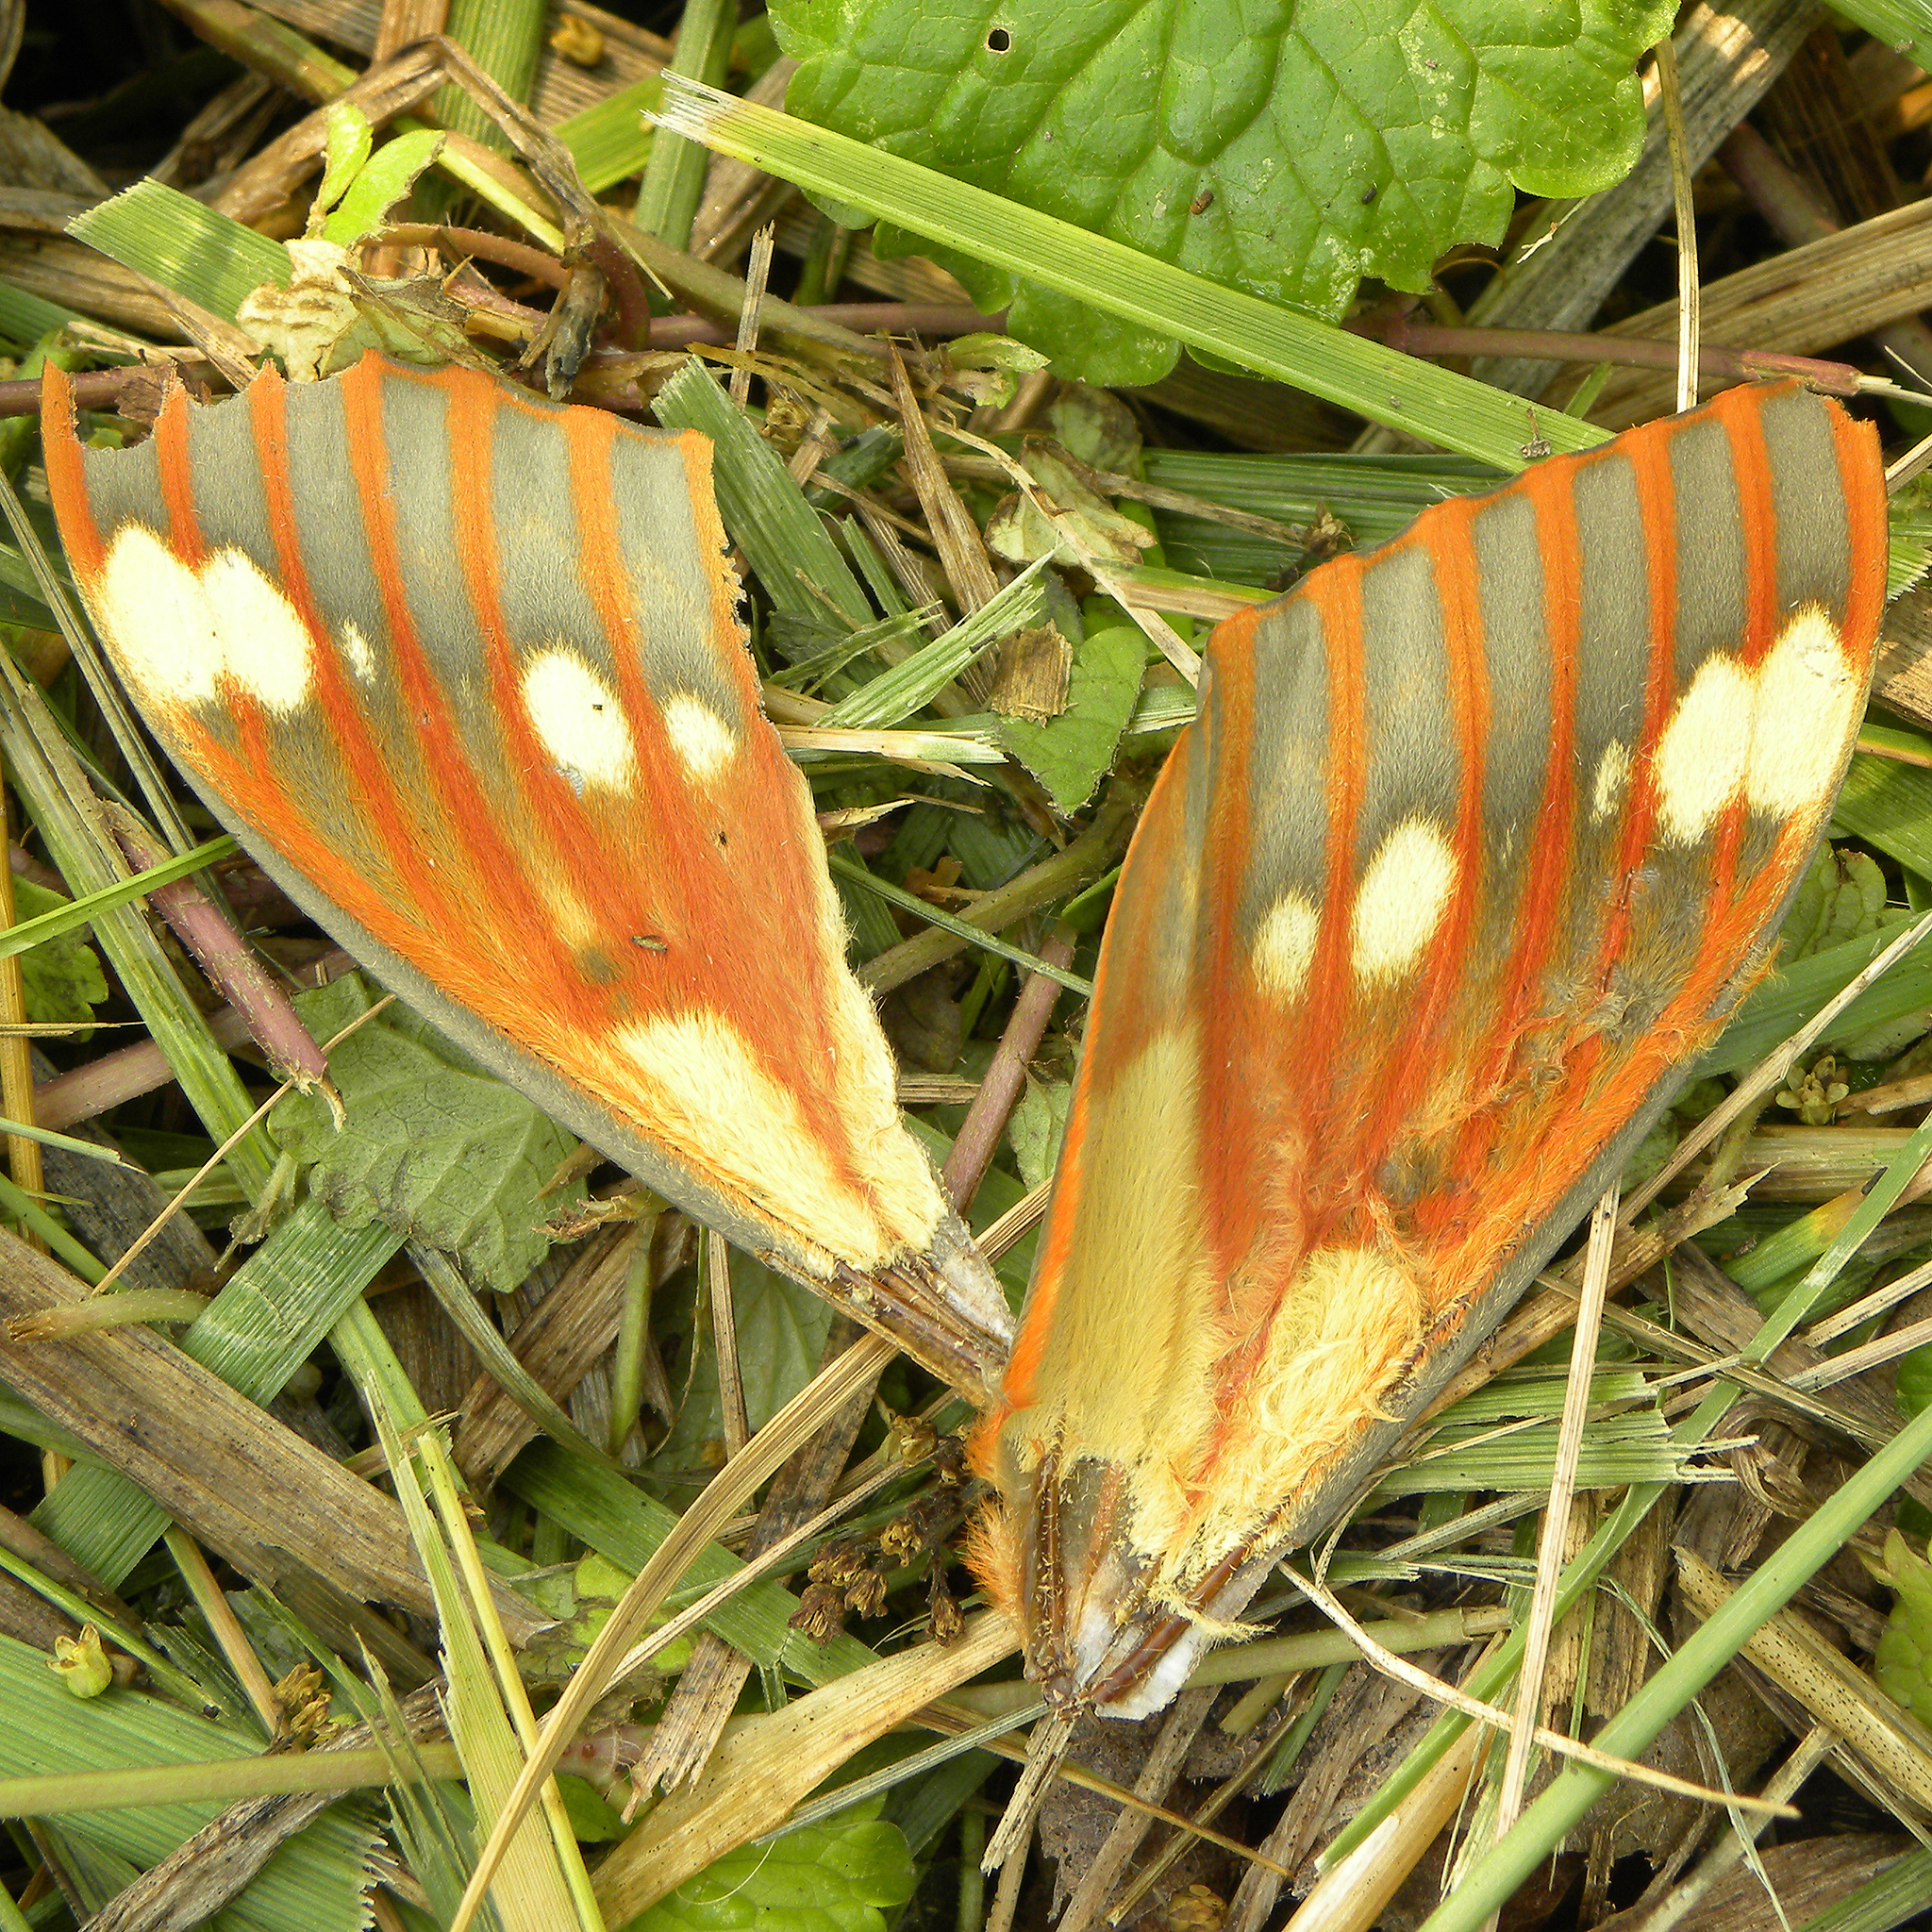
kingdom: Animalia
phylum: Arthropoda
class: Insecta
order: Lepidoptera
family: Saturniidae
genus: Citheronia
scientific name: Citheronia regalis
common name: Hickory horned devil
